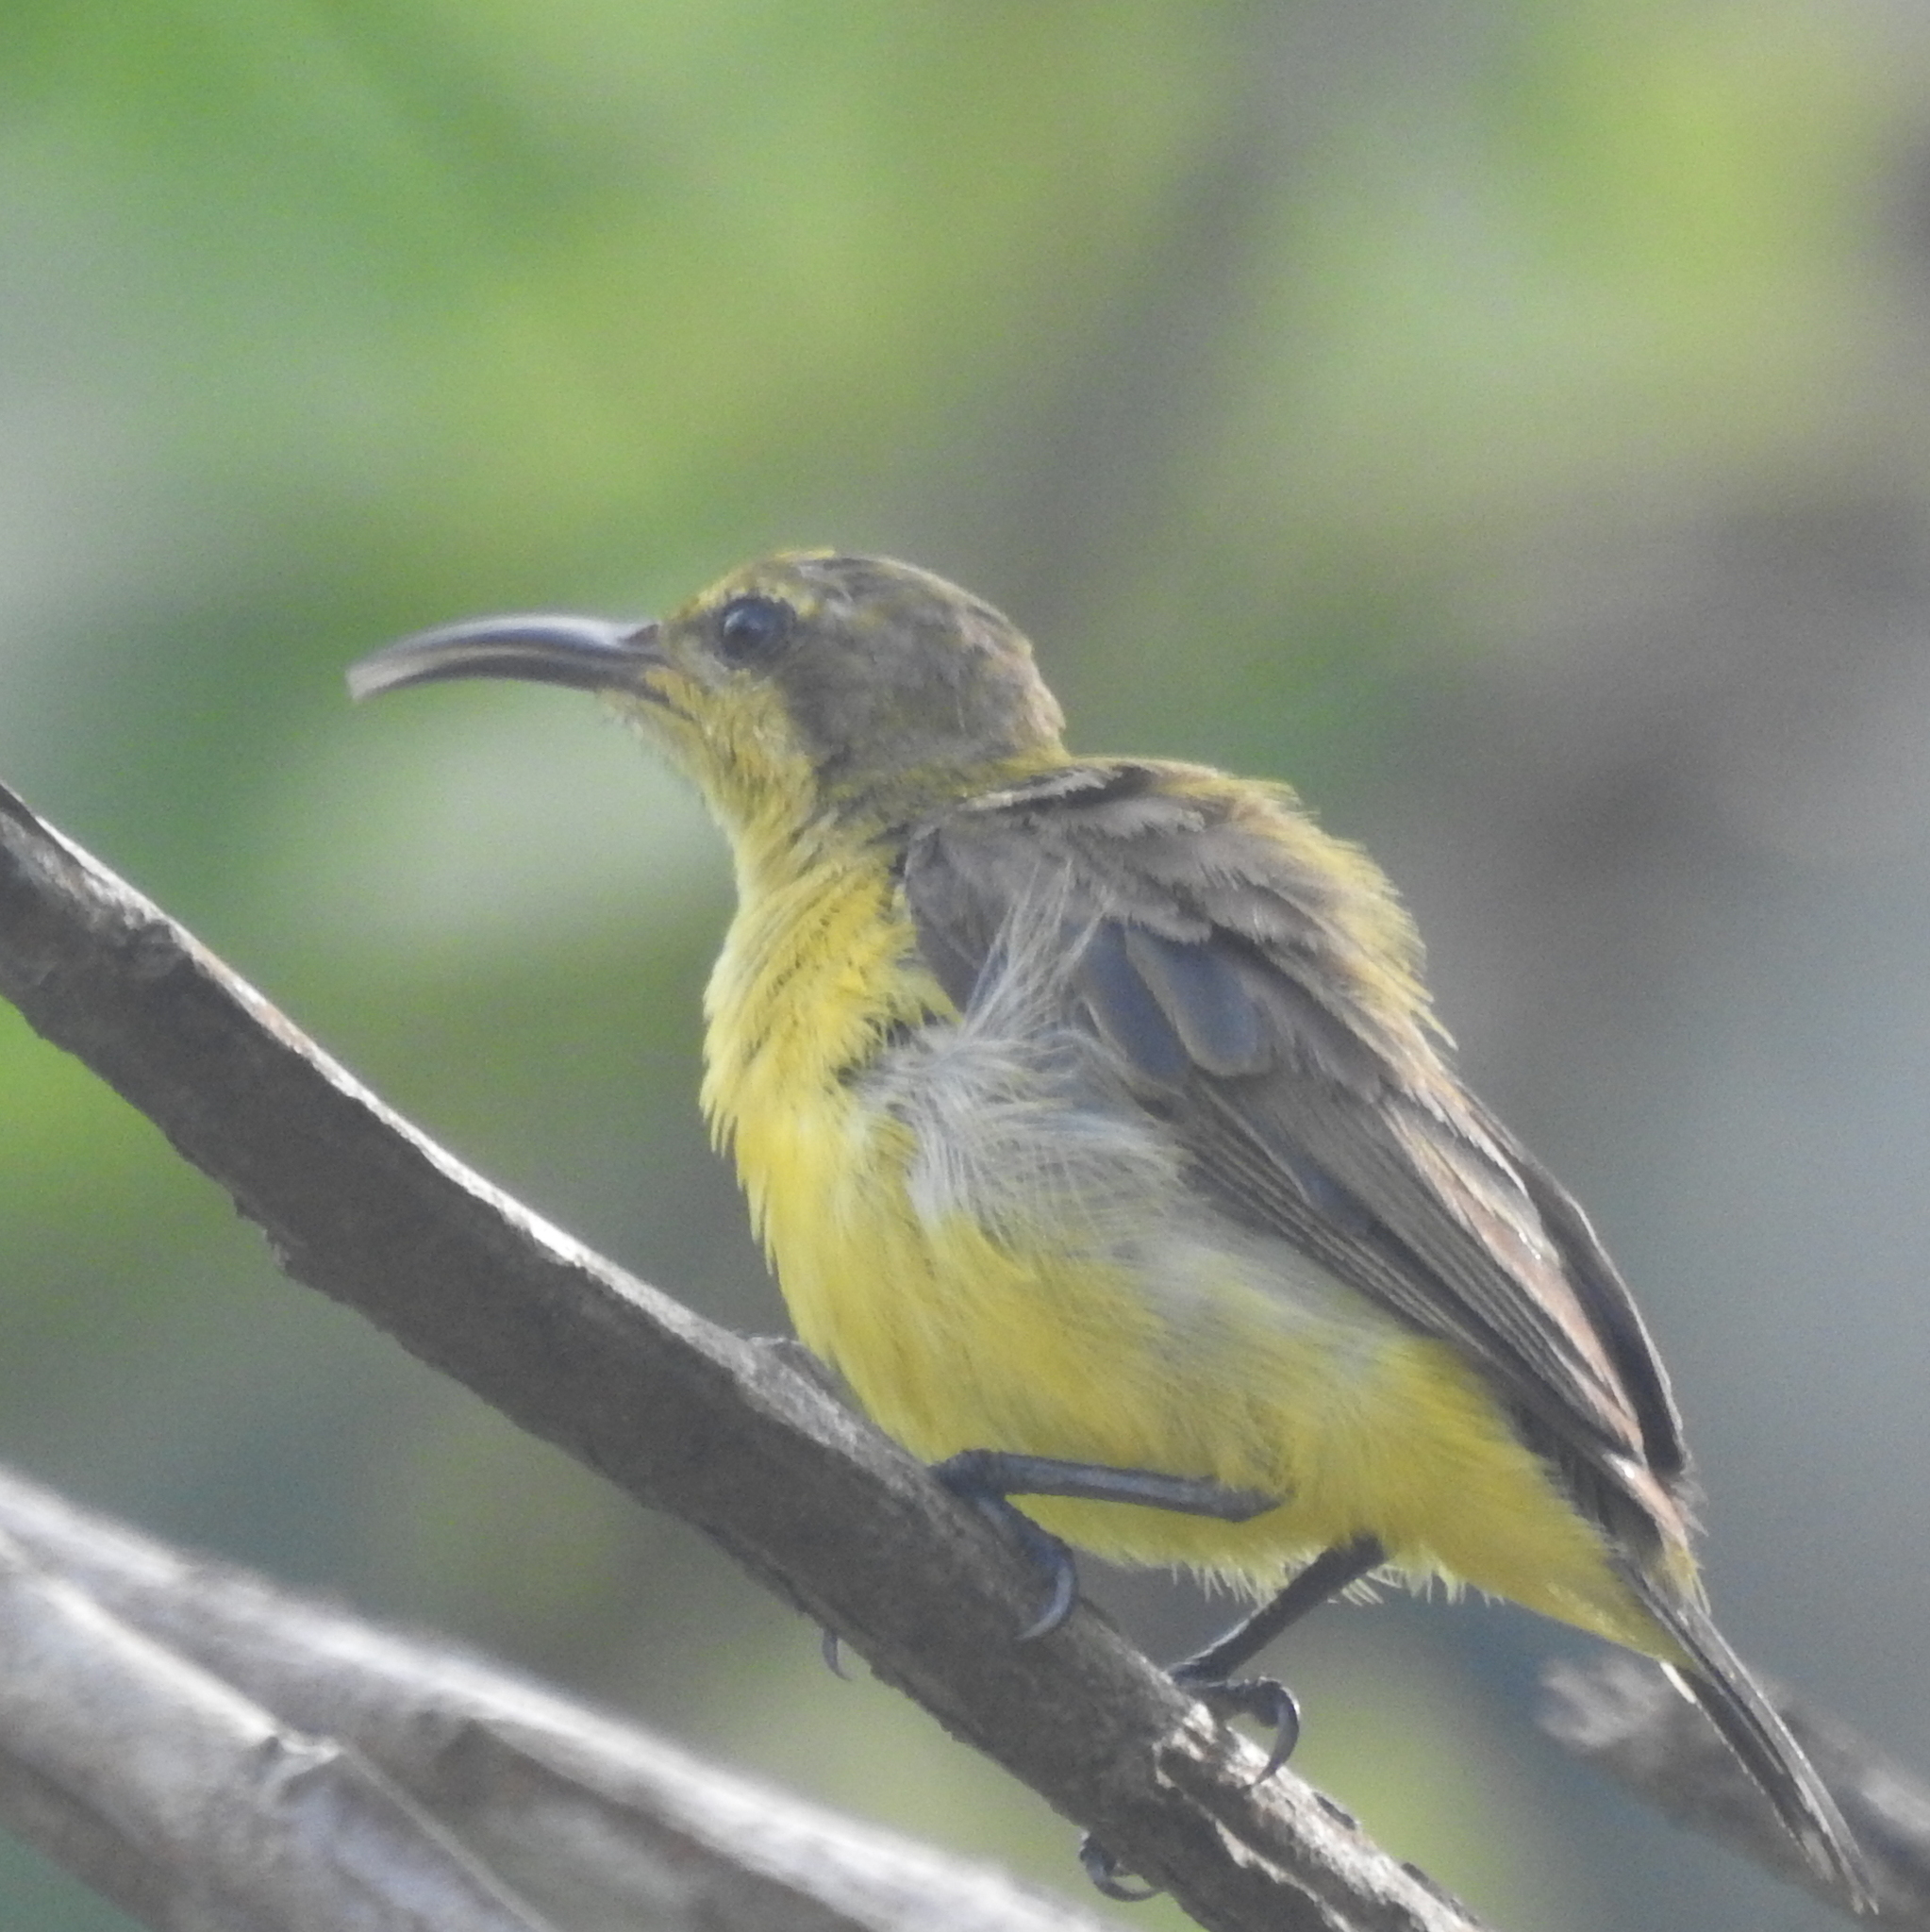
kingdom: Animalia
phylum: Chordata
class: Aves
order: Passeriformes
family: Nectariniidae
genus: Cinnyris
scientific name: Cinnyris
